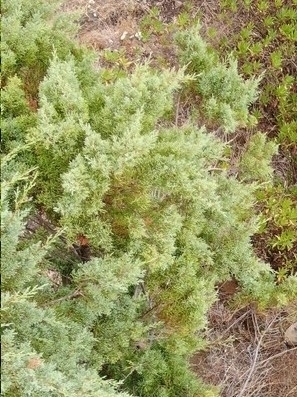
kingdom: Plantae
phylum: Tracheophyta
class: Pinopsida
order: Pinales
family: Cupressaceae
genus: Juniperus
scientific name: Juniperus canariensis
